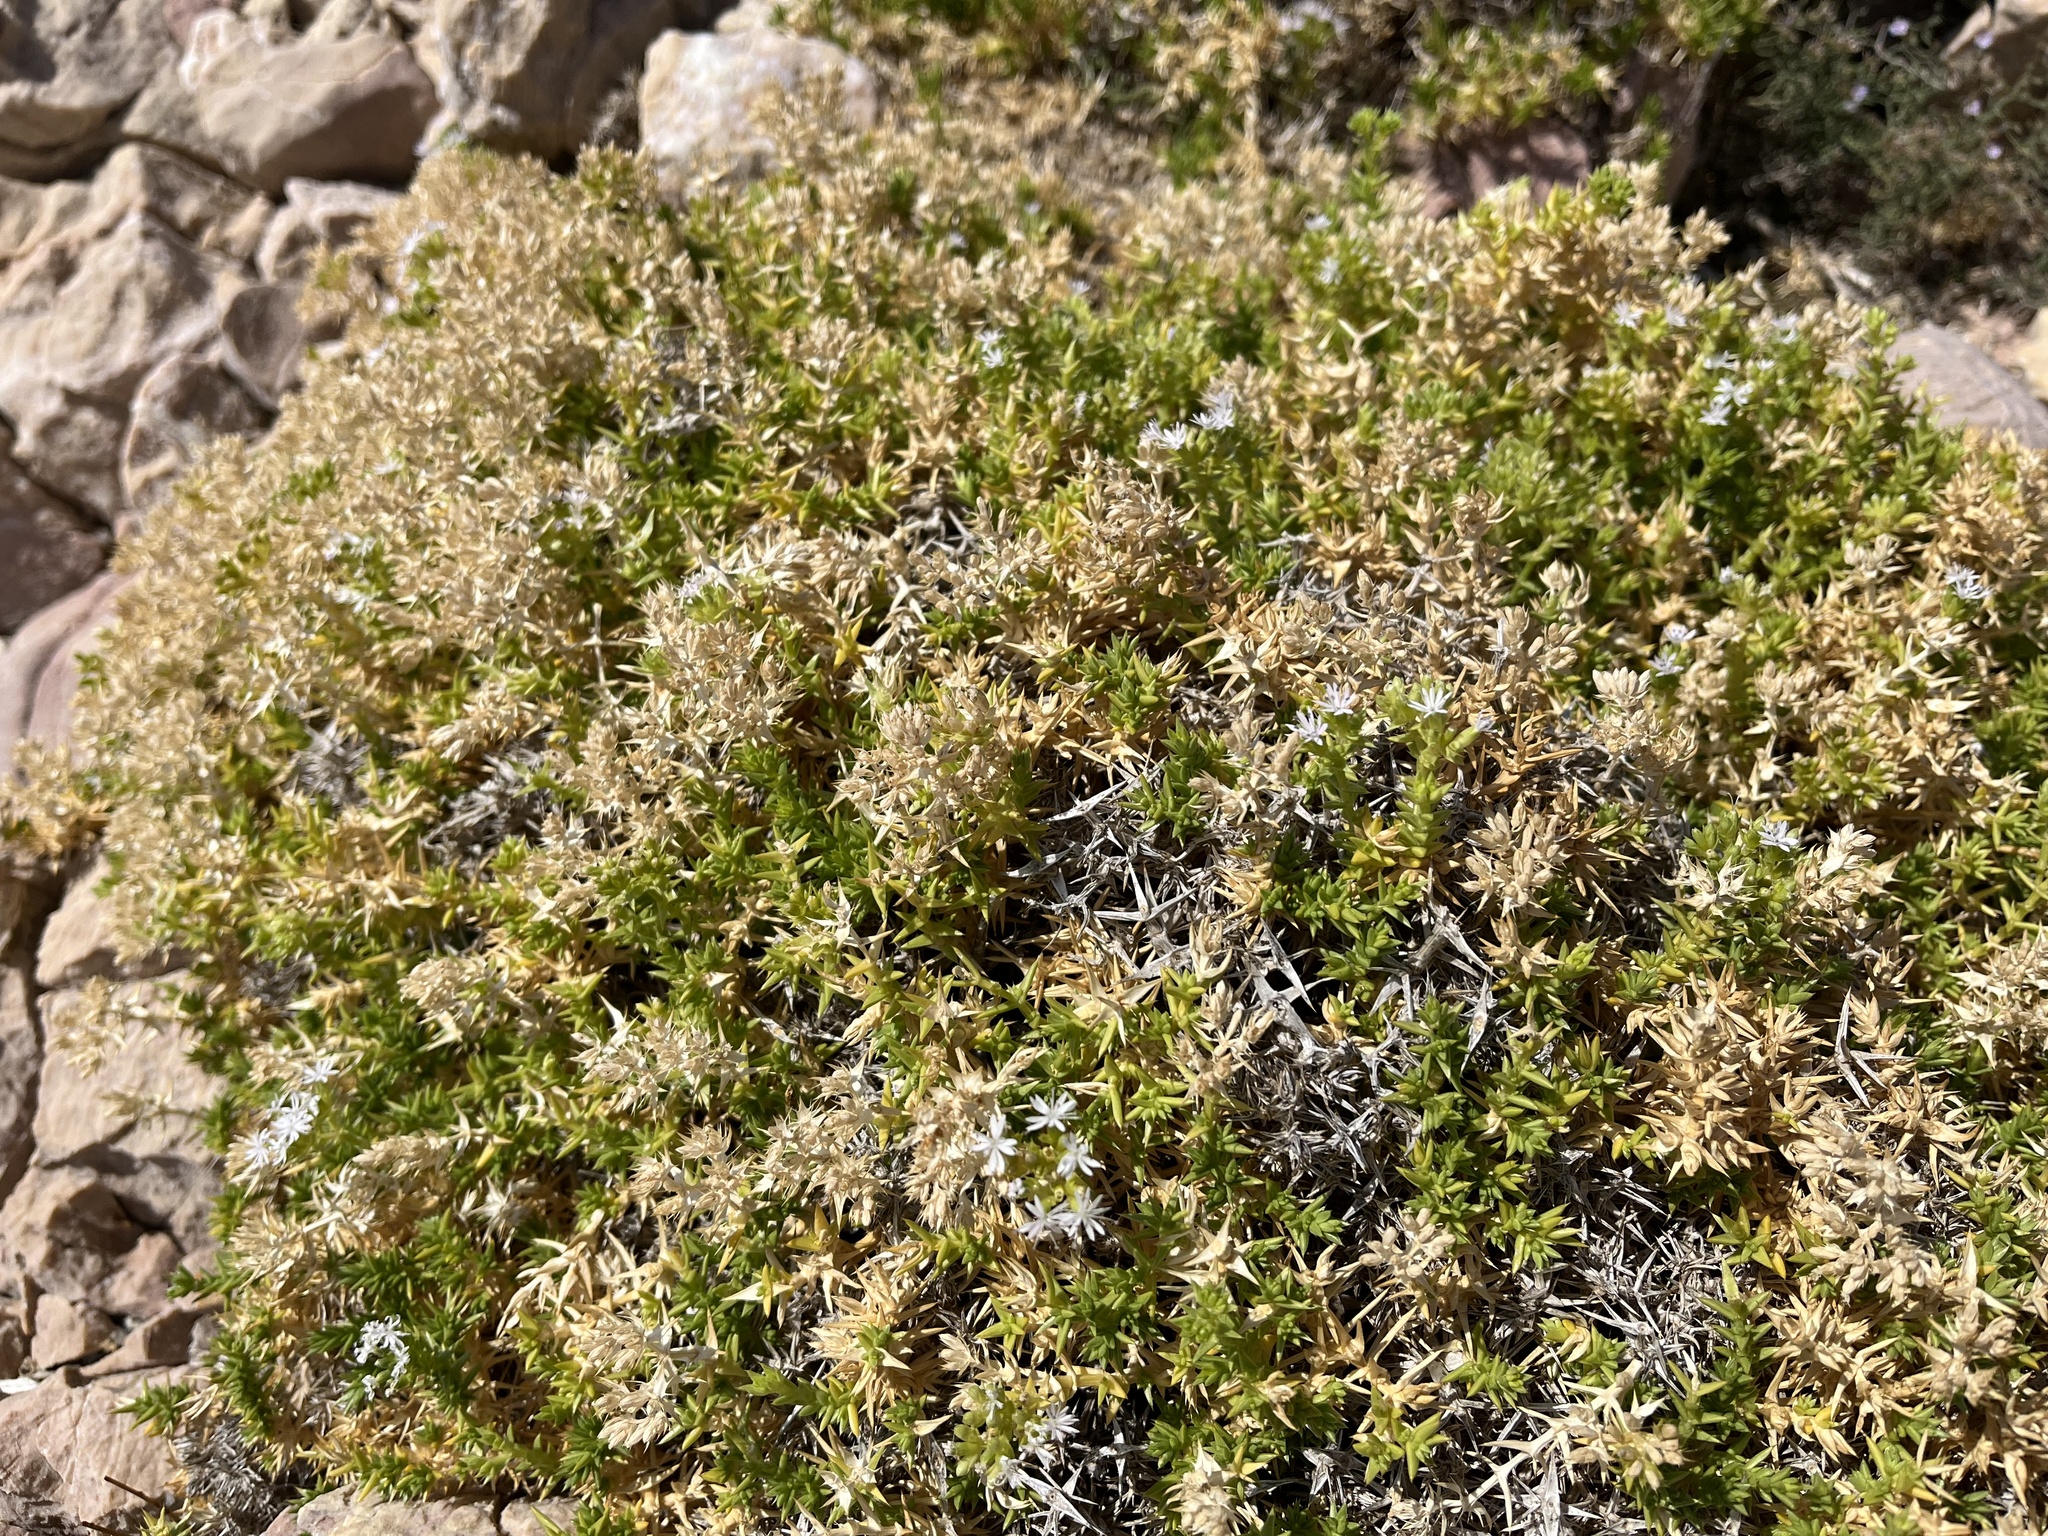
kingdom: Plantae
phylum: Tracheophyta
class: Magnoliopsida
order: Caryophyllales
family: Caryophyllaceae
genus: Drypis
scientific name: Drypis spinosa
